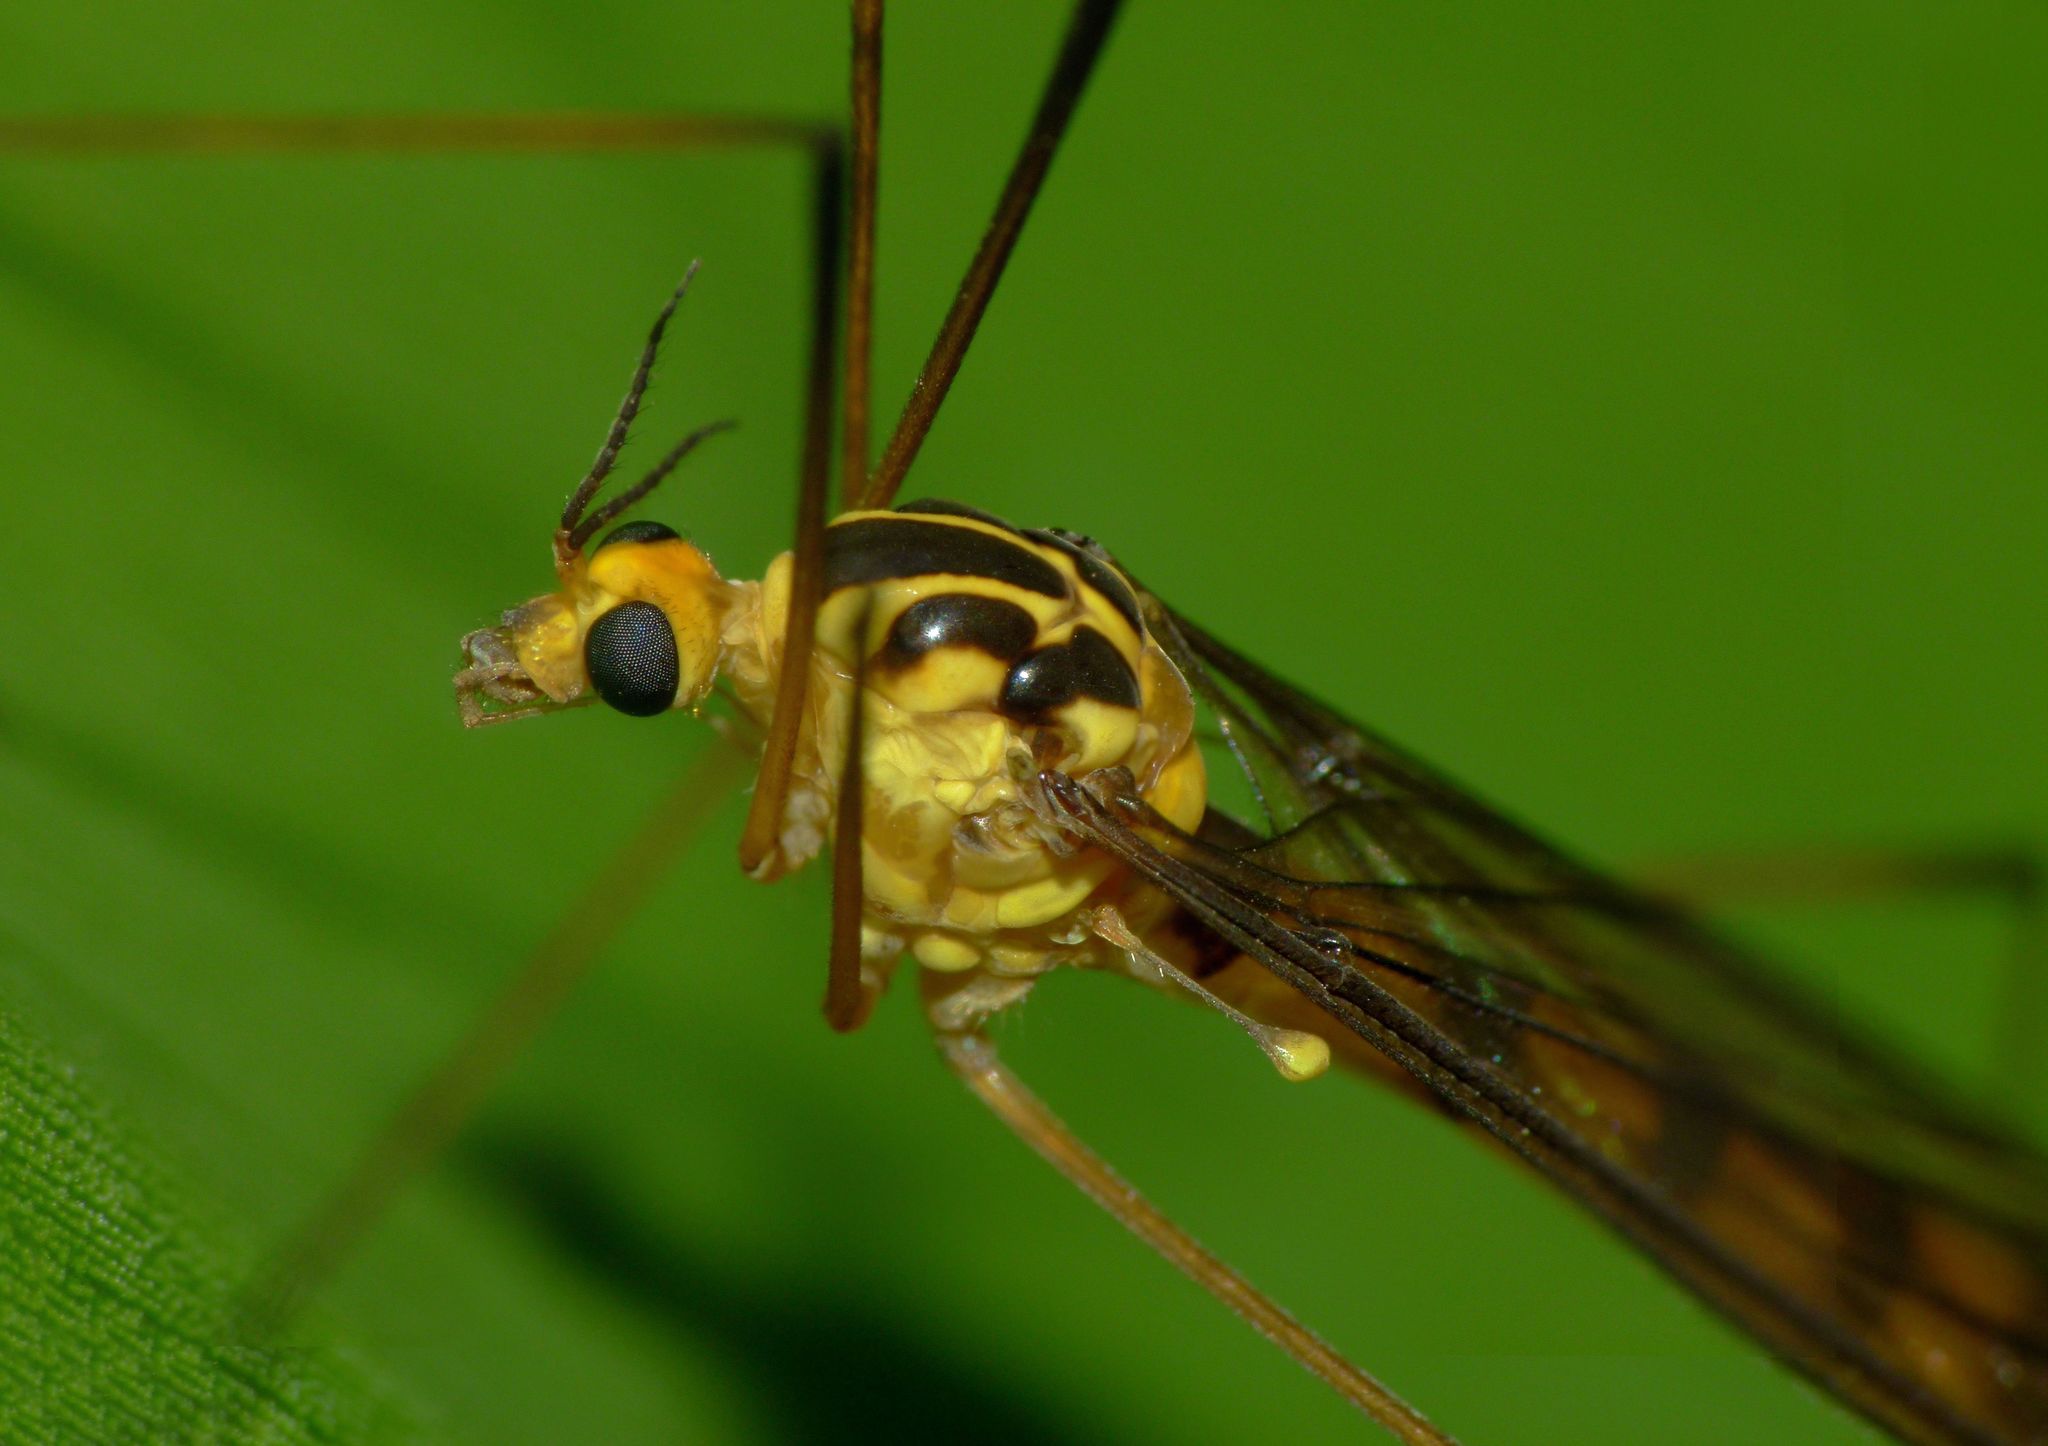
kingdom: Animalia
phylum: Arthropoda
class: Insecta
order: Diptera
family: Tipulidae
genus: Nephrotoma
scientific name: Nephrotoma australasiae
